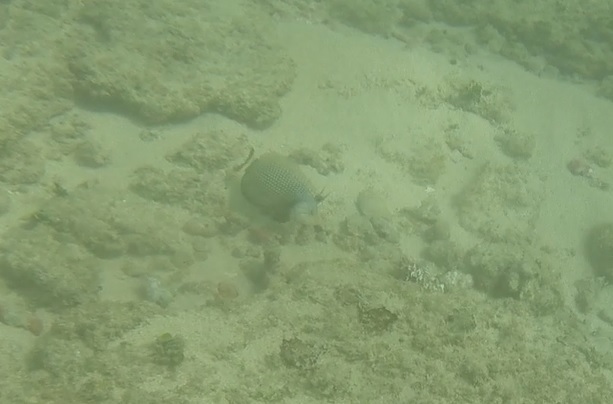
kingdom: Animalia
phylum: Chordata
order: Perciformes
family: Labridae
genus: Novaculichthys
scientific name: Novaculichthys taeniourus
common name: Rockmover wrasse
